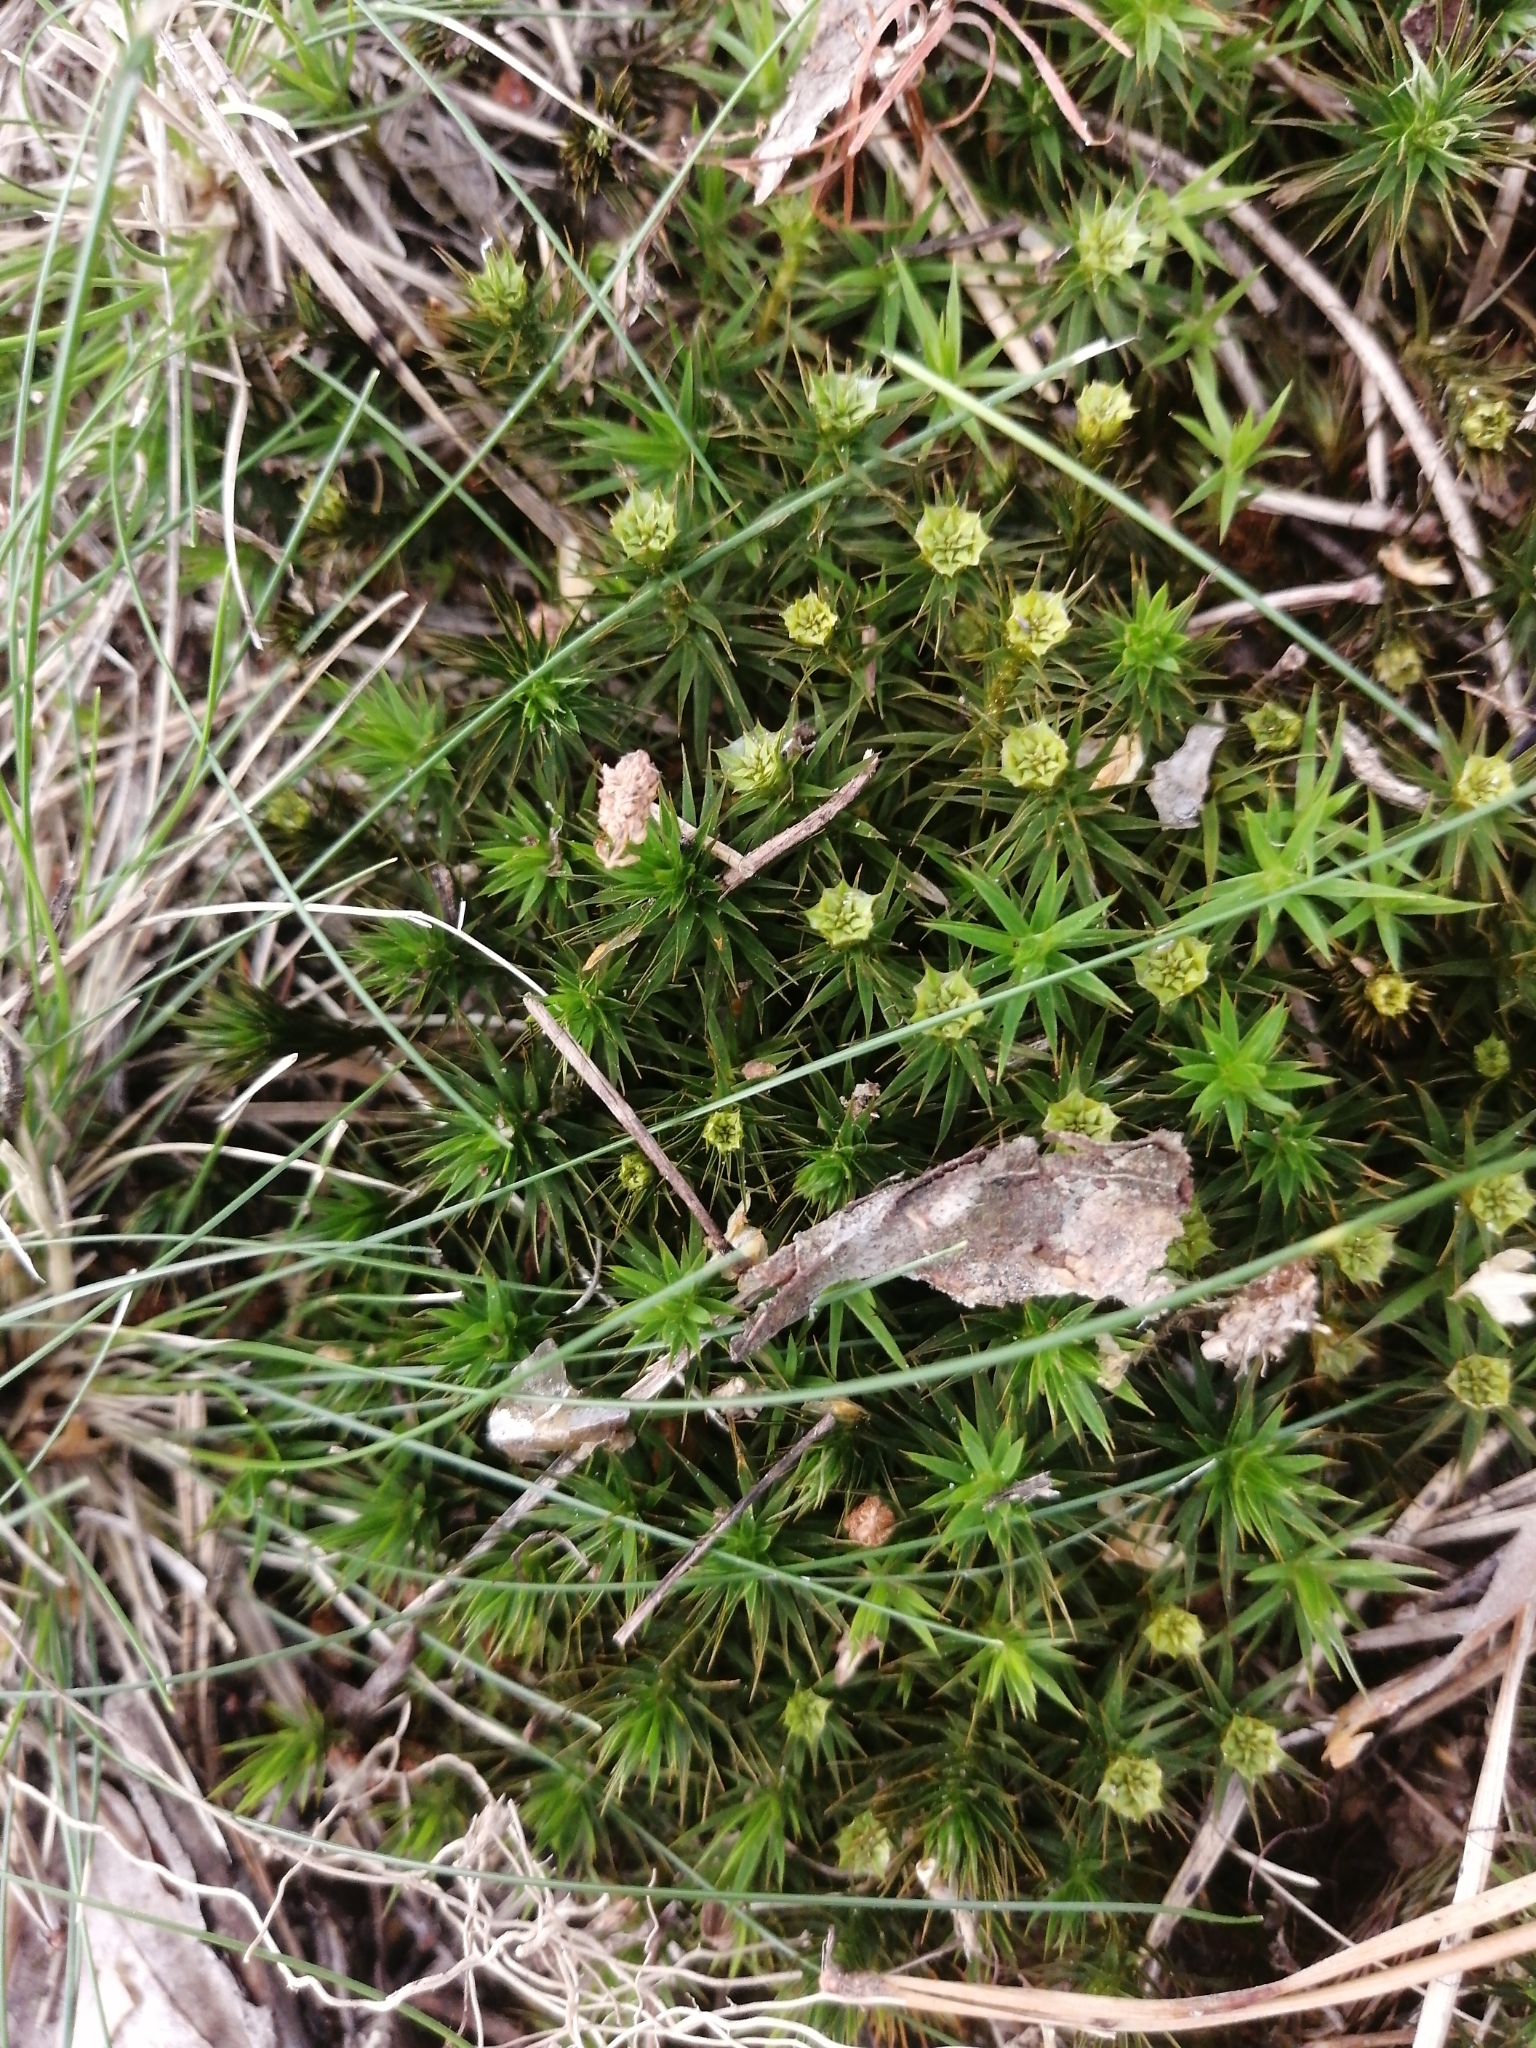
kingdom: Plantae
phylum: Bryophyta
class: Polytrichopsida
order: Polytrichales
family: Polytrichaceae
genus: Polytrichum
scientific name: Polytrichum formosum
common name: Bank haircap moss
